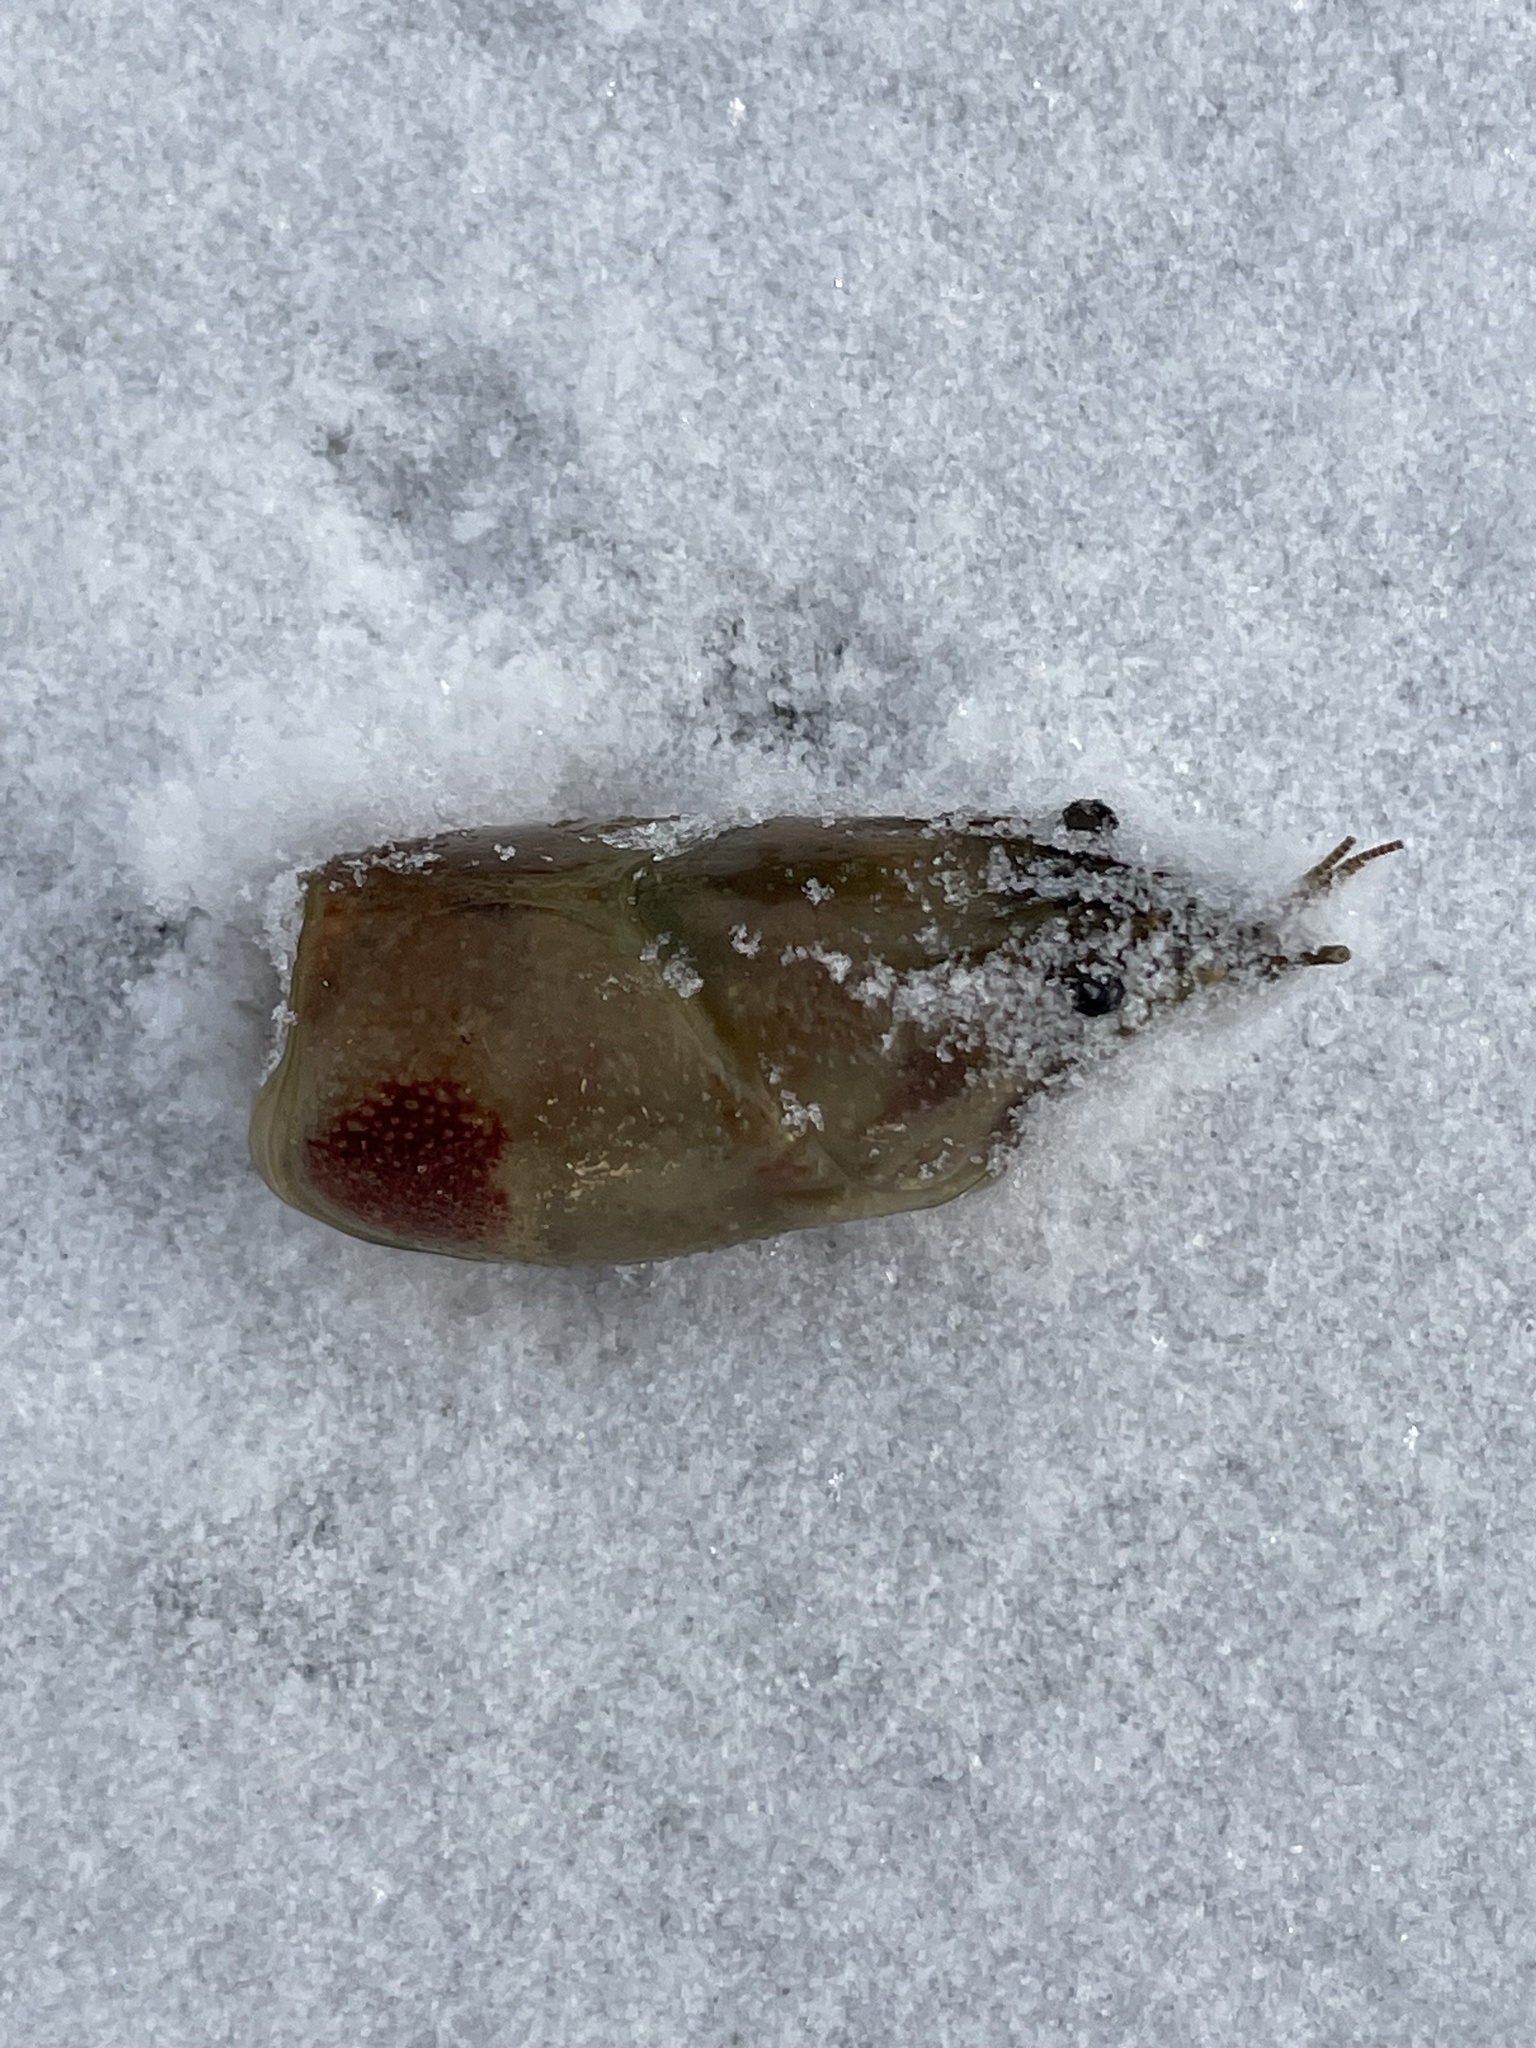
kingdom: Animalia
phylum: Arthropoda
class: Malacostraca
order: Decapoda
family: Cambaridae
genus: Faxonius
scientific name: Faxonius rusticus
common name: Rusty crayfish
